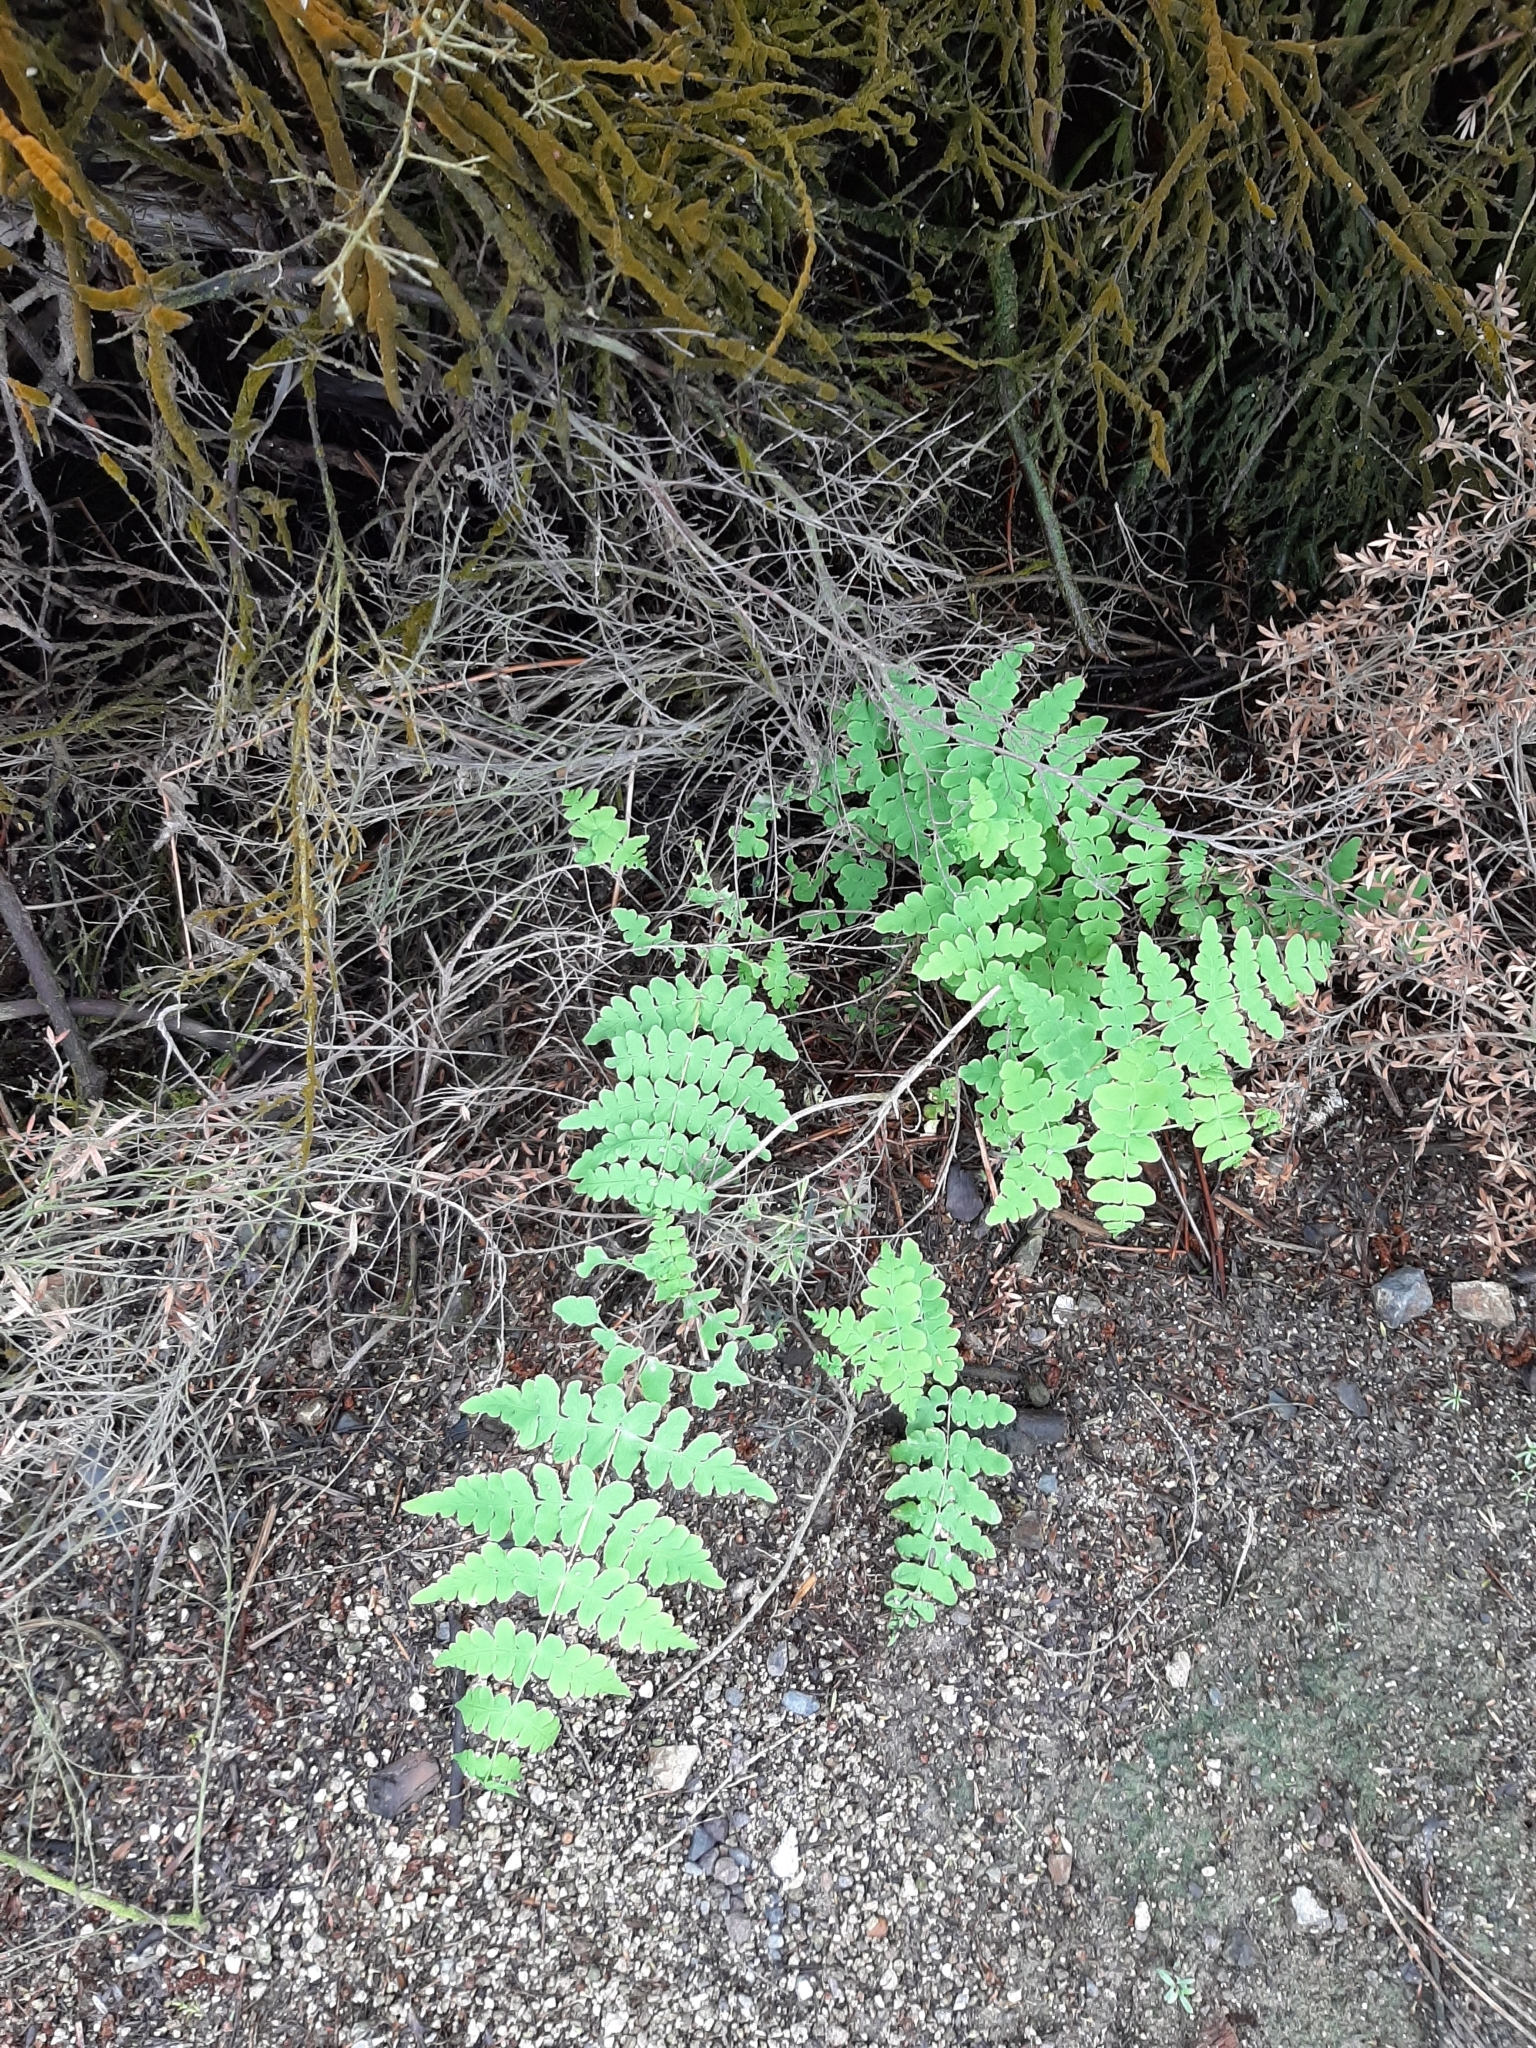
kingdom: Plantae
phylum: Tracheophyta
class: Polypodiopsida
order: Polypodiales
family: Dennstaedtiaceae
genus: Histiopteris
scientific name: Histiopteris incisa
